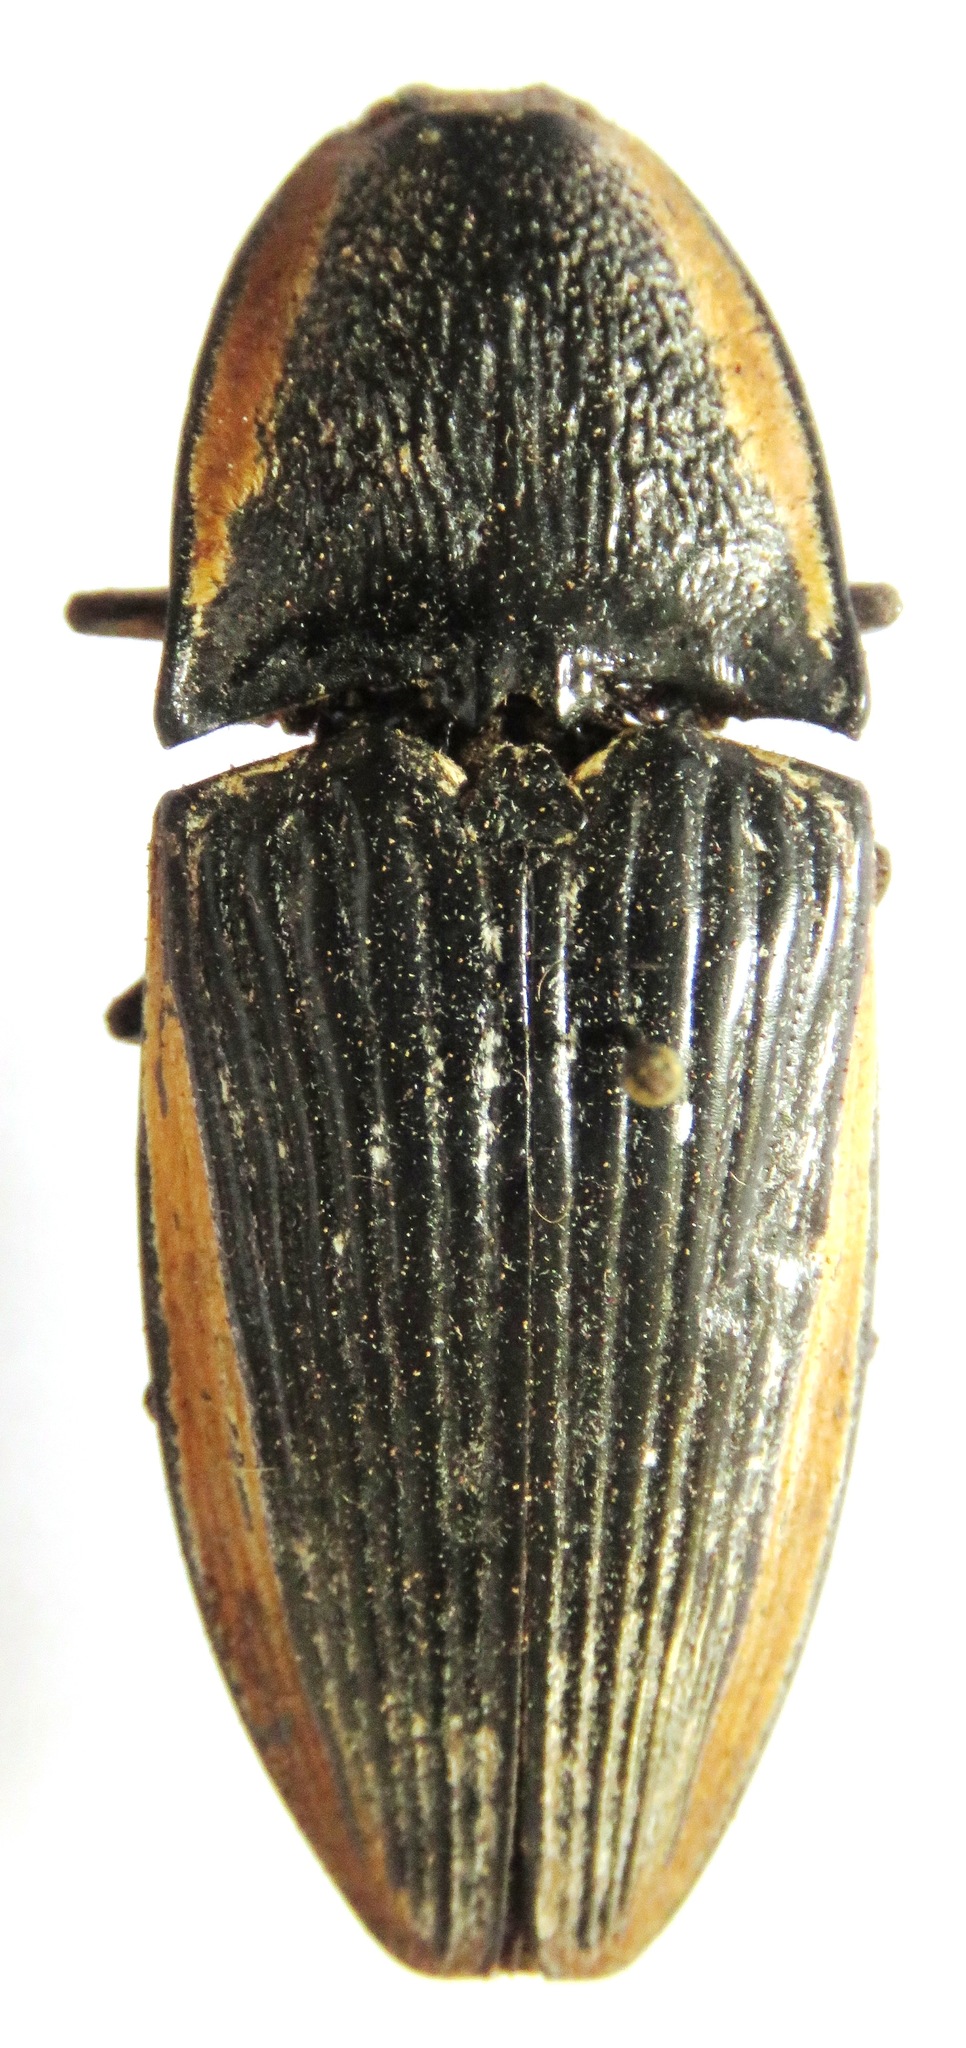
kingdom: Animalia
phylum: Arthropoda
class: Insecta
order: Coleoptera
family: Elateridae
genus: Chalcolepidius
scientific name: Chalcolepidius
